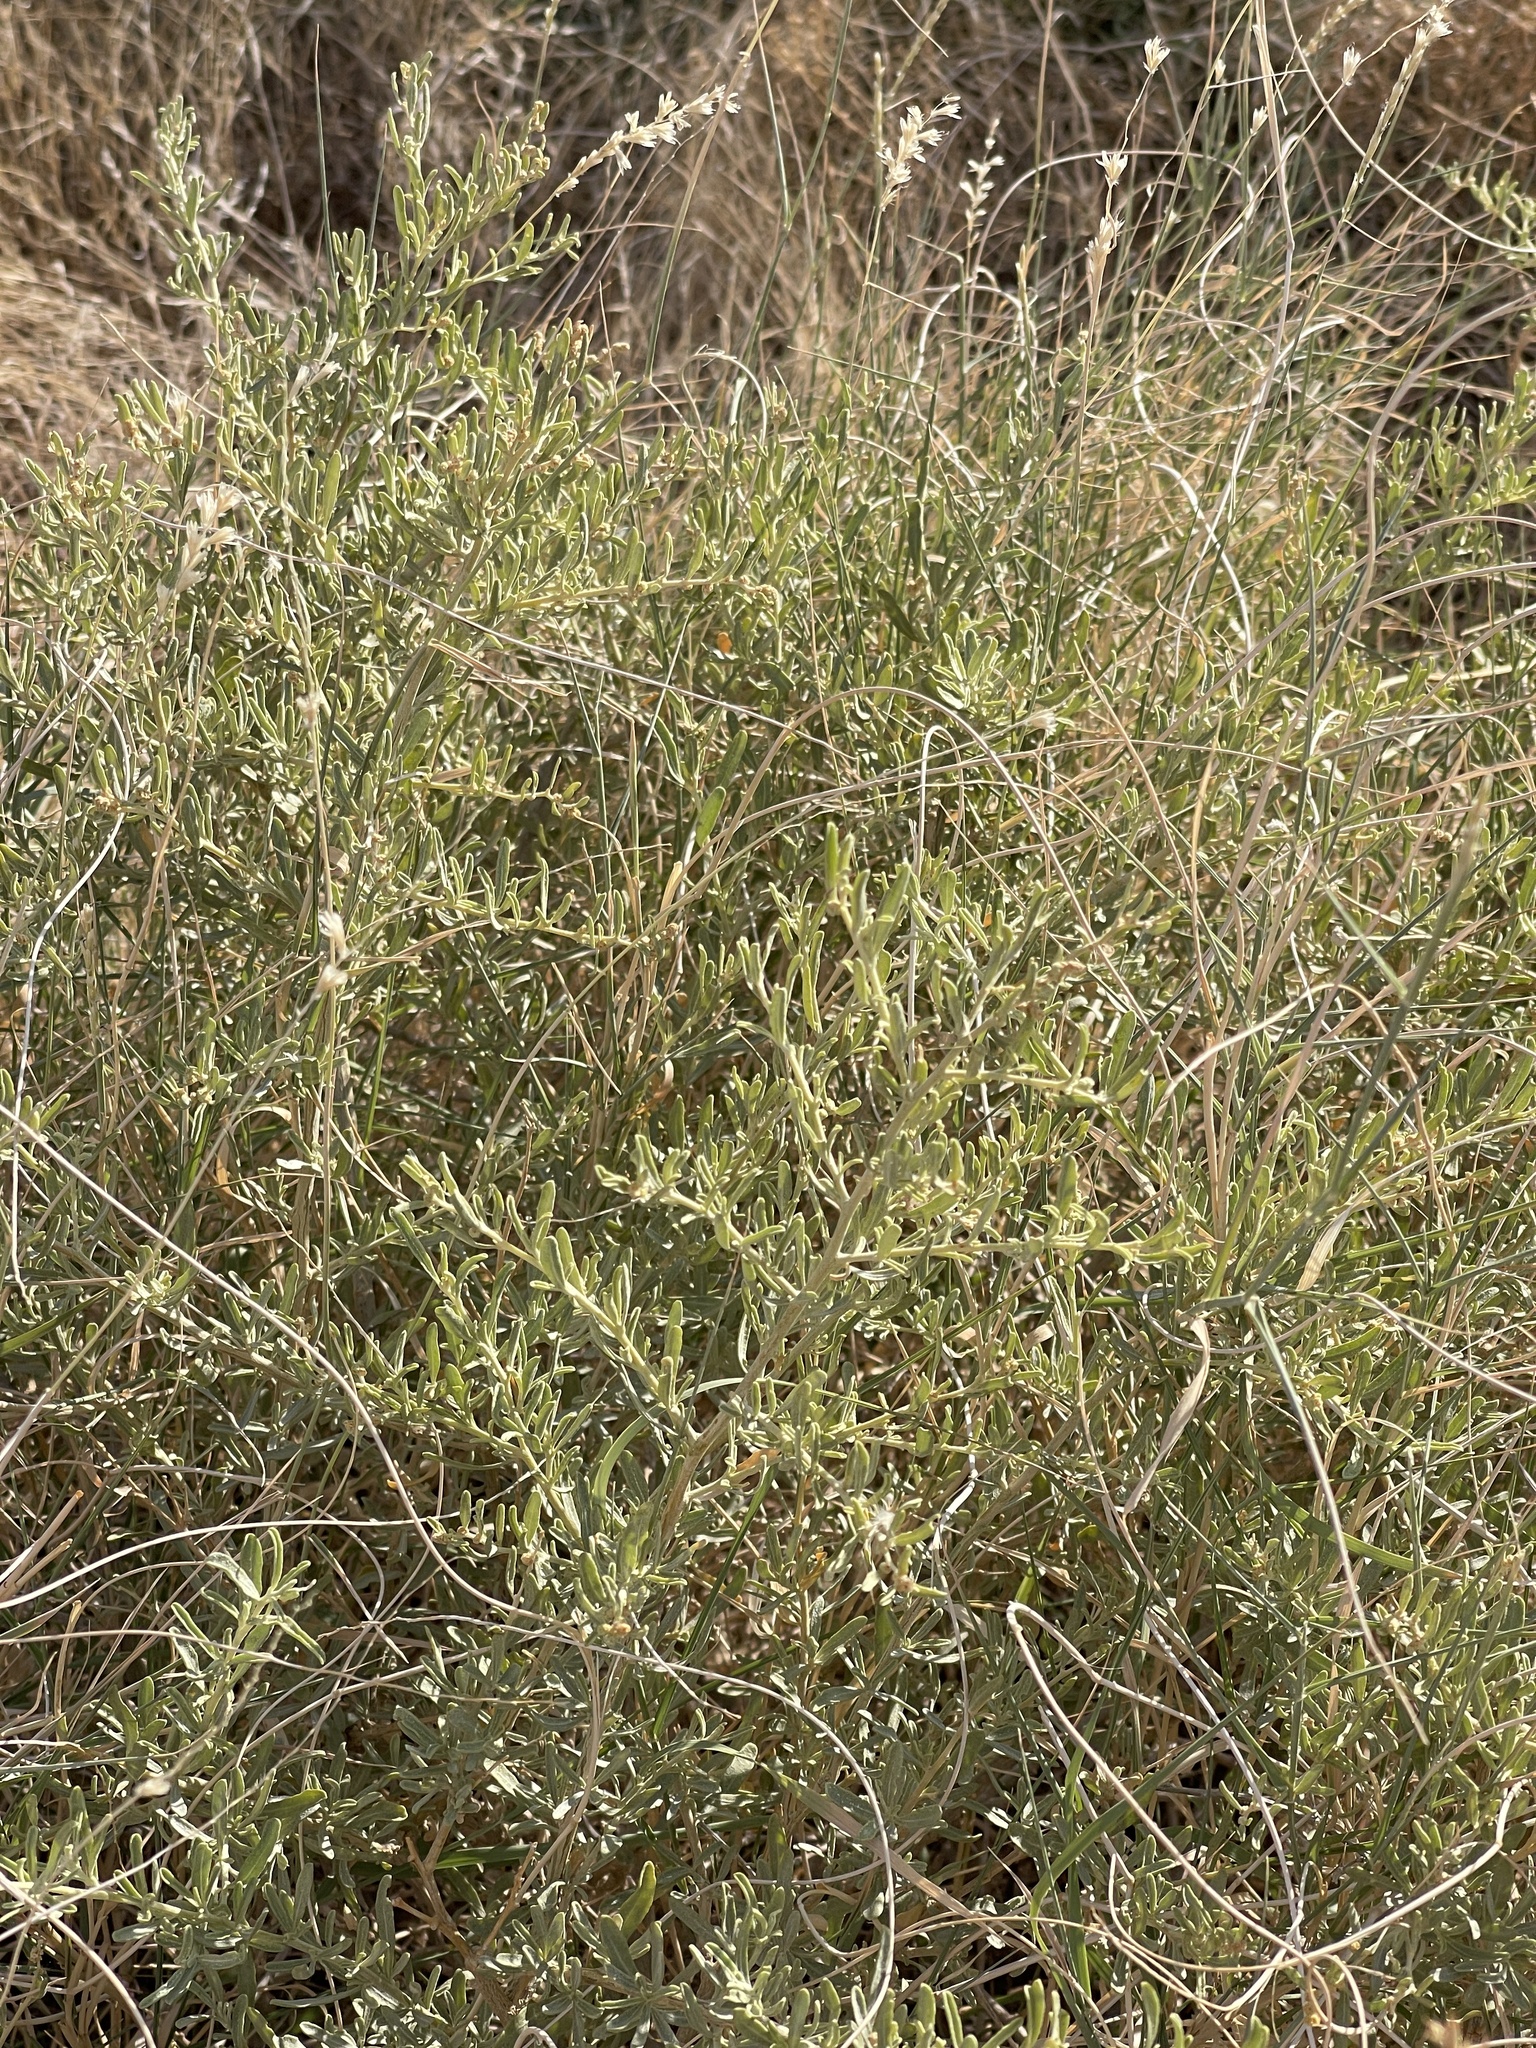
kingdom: Plantae
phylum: Tracheophyta
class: Magnoliopsida
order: Caryophyllales
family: Amaranthaceae
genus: Atriplex
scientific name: Atriplex canescens
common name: Four-wing saltbush
